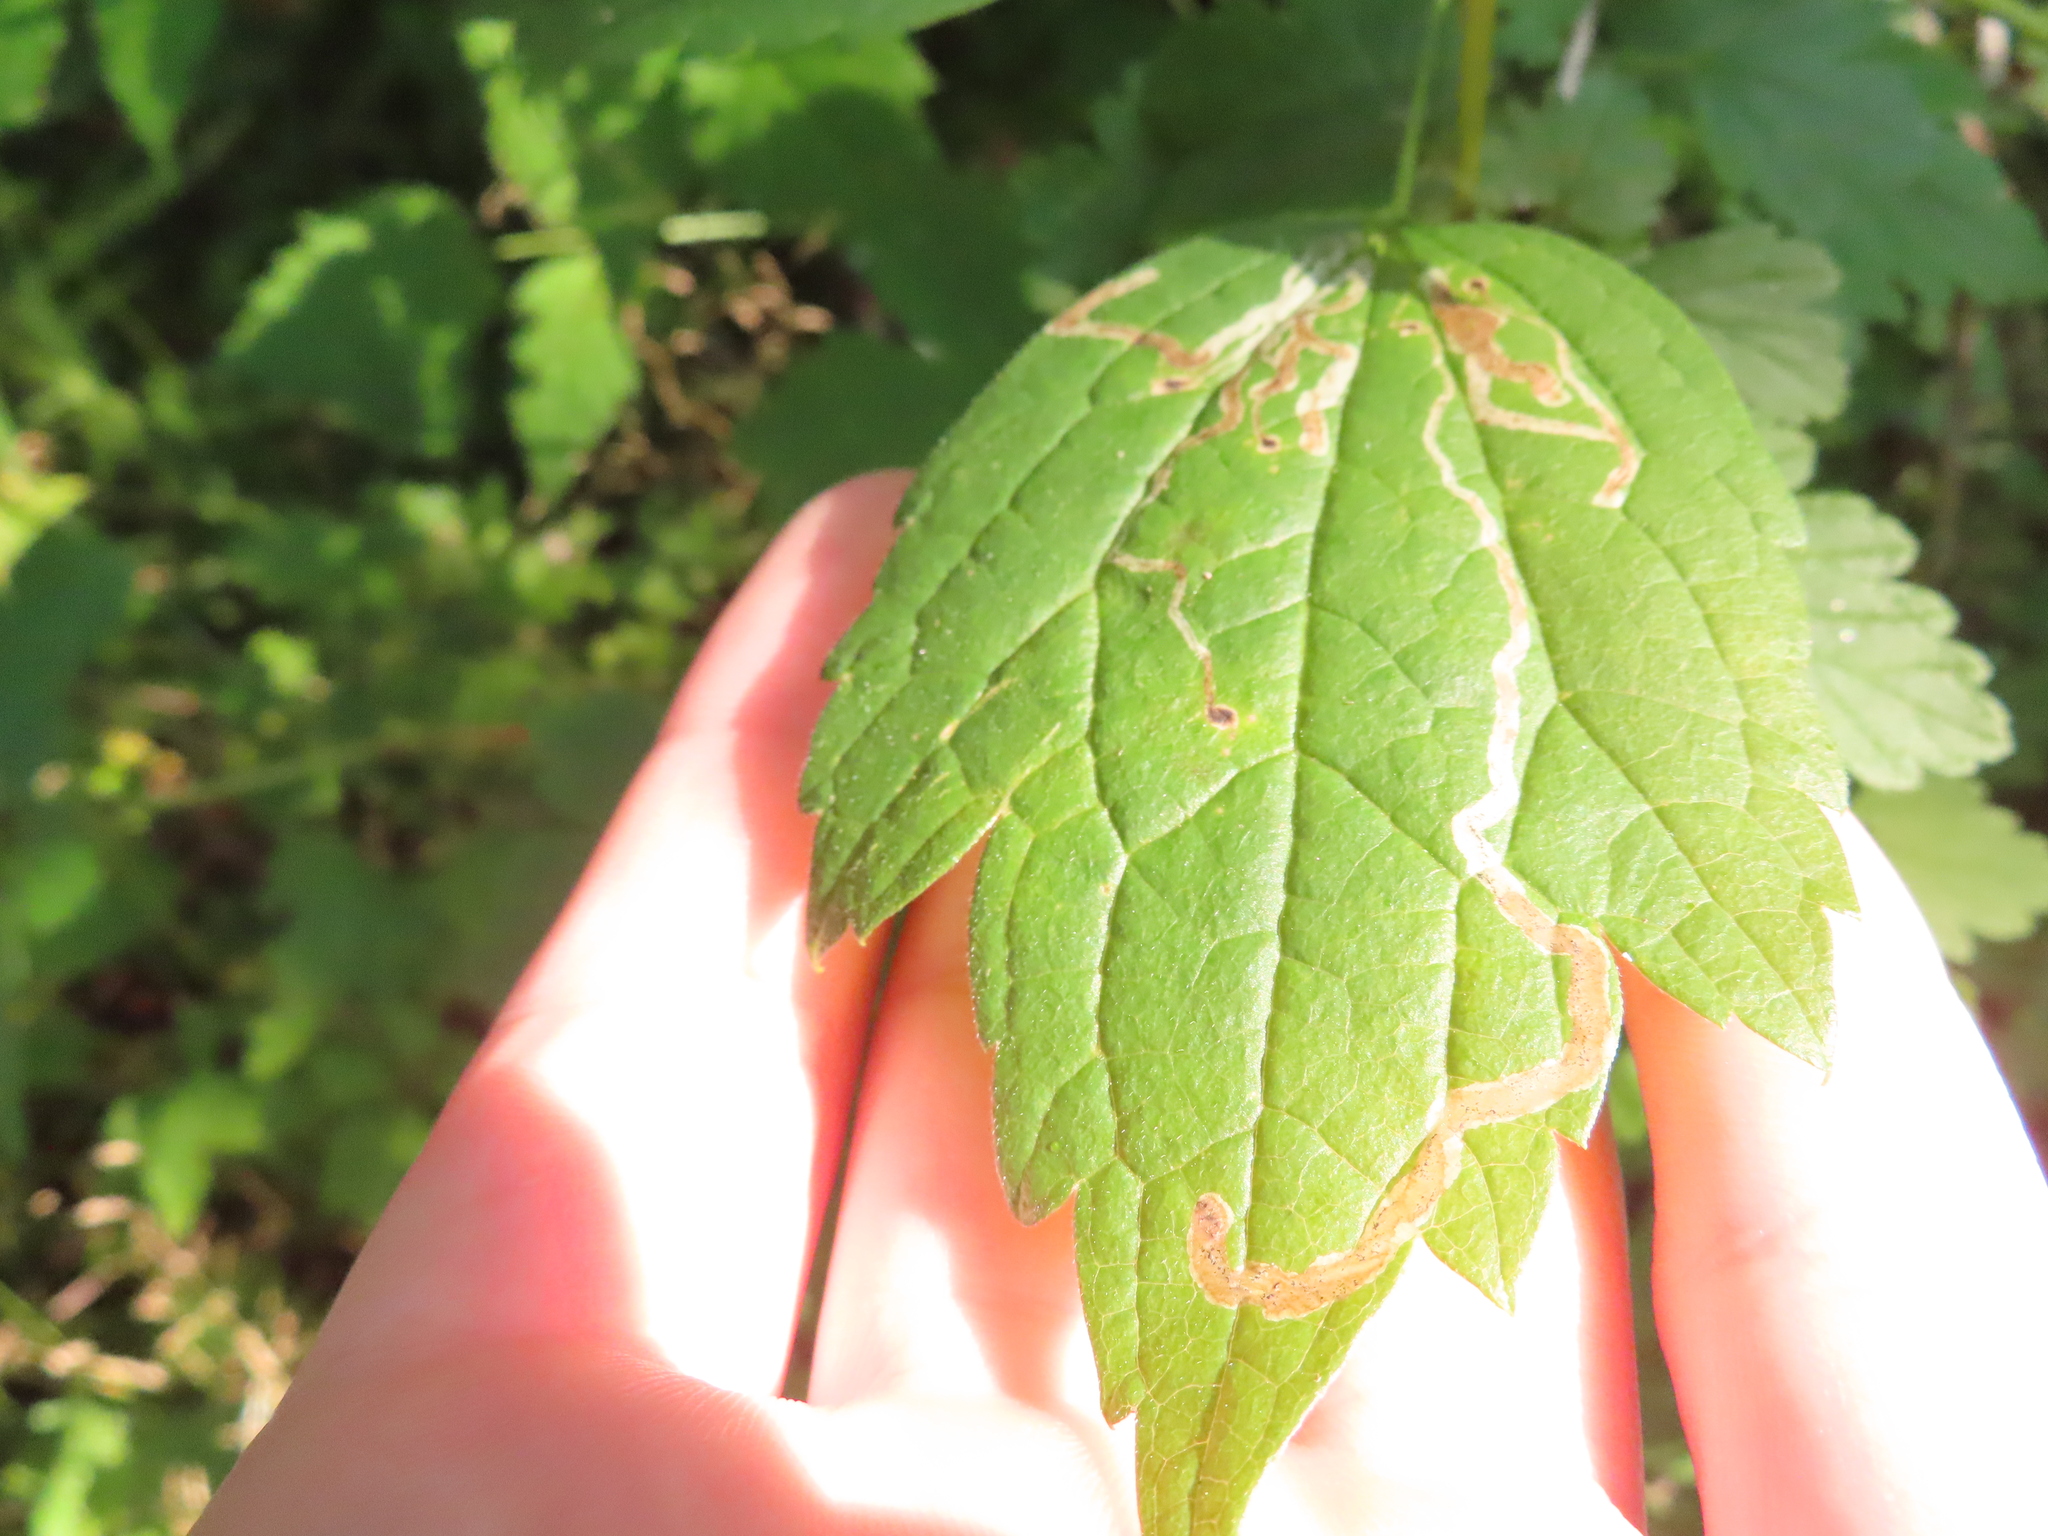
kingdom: Animalia
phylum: Arthropoda
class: Insecta
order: Diptera
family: Agromyzidae
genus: Phytomyza
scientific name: Phytomyza loewii
